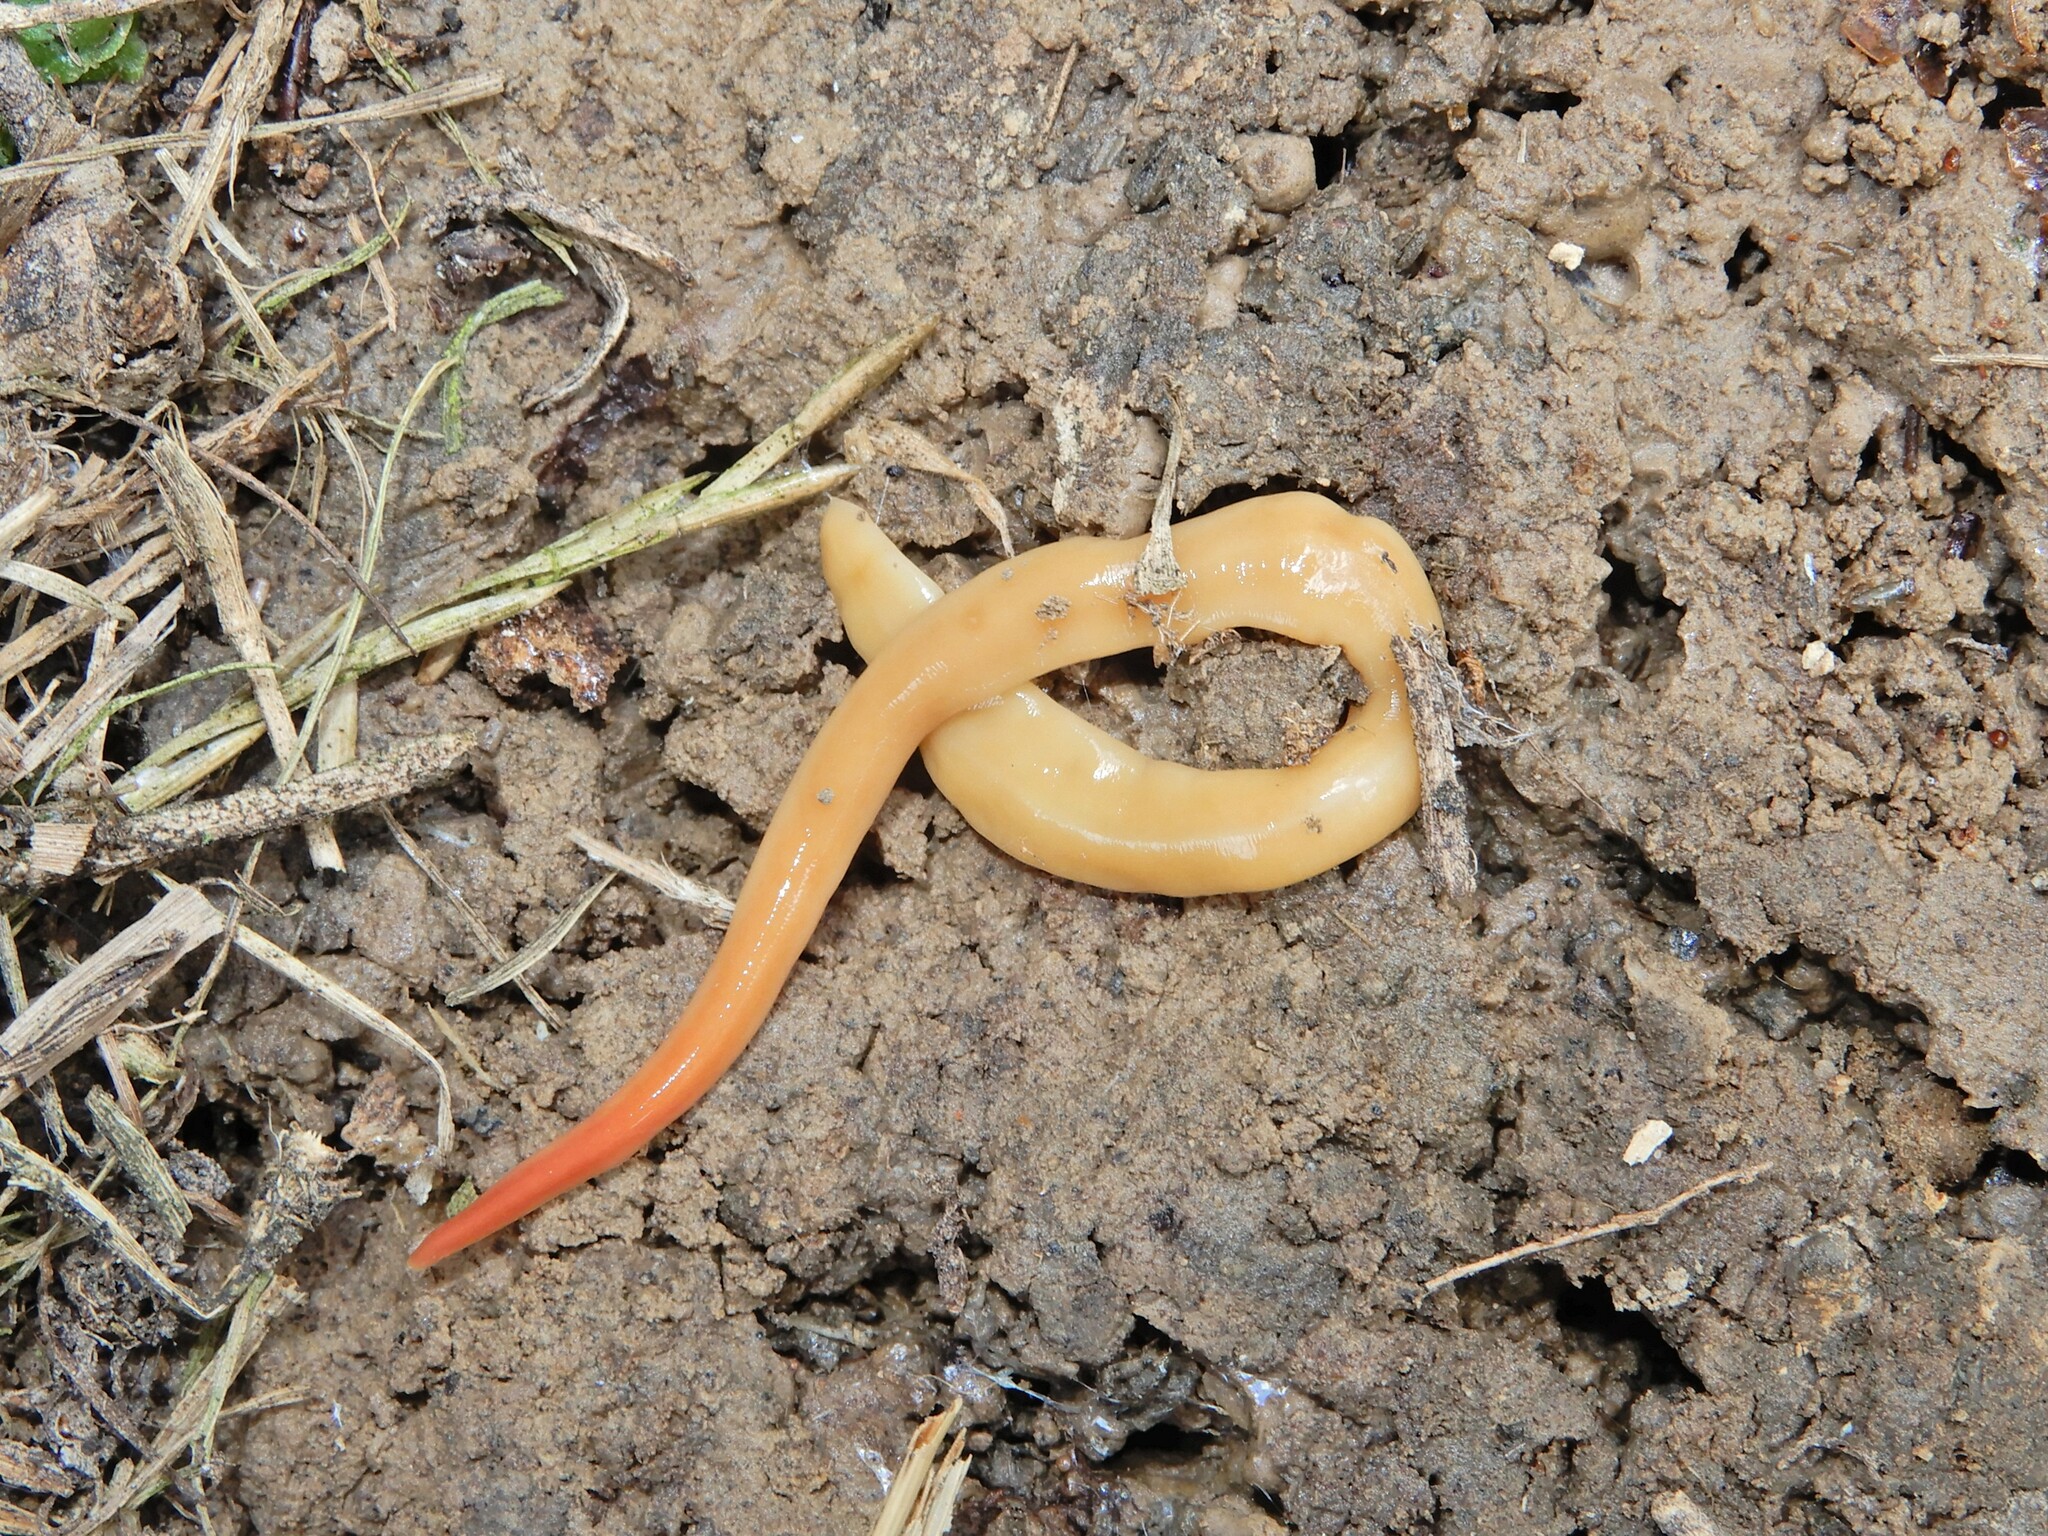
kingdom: Animalia
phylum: Platyhelminthes
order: Tricladida
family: Geoplanidae
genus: Australoplana
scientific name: Australoplana sanguinea
